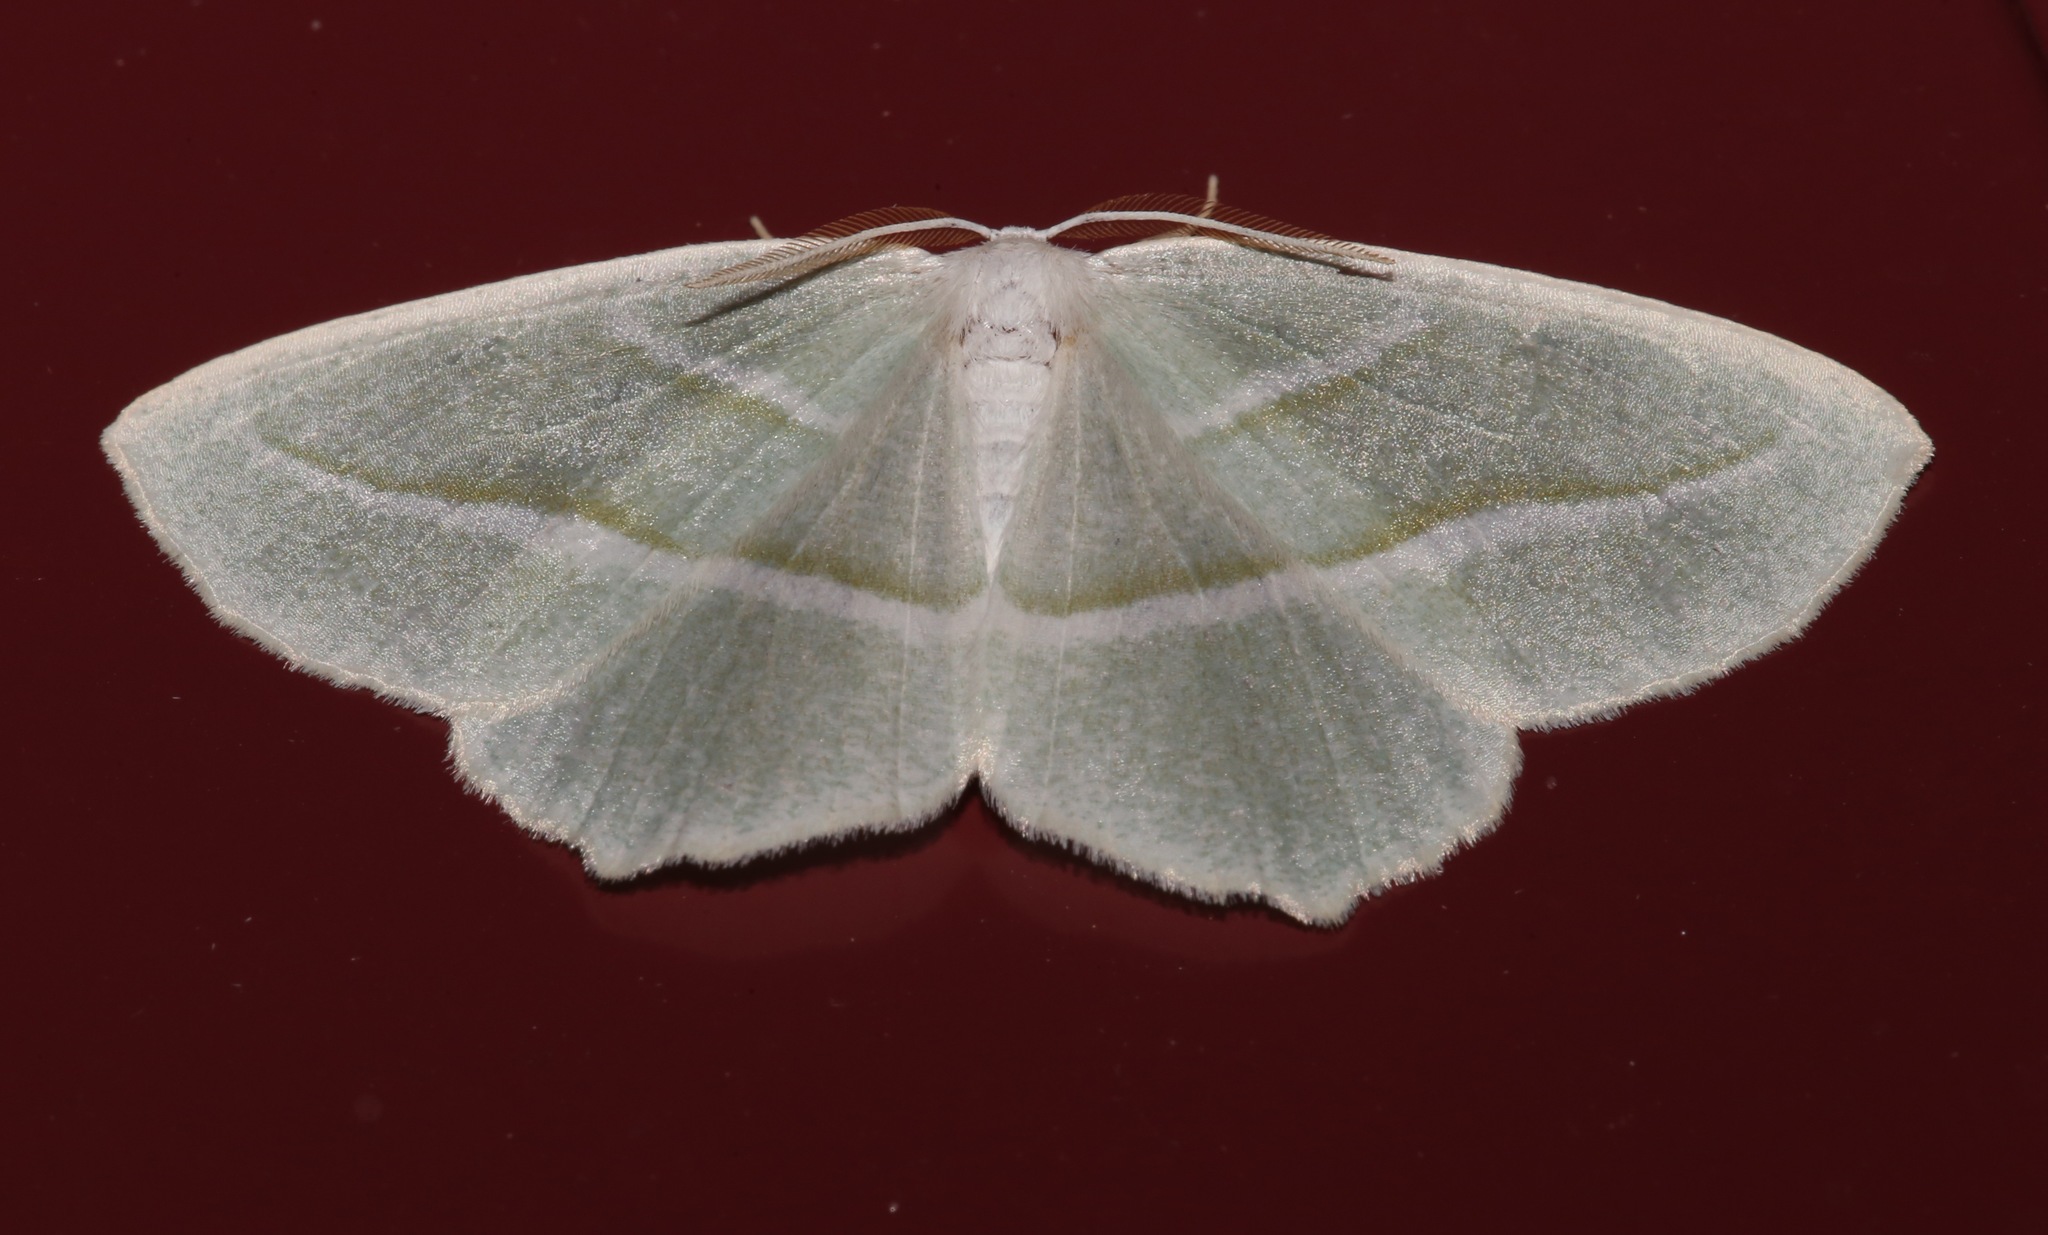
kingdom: Animalia
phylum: Arthropoda
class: Insecta
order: Lepidoptera
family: Geometridae
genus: Campaea
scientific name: Campaea perlata
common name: Fringed looper
